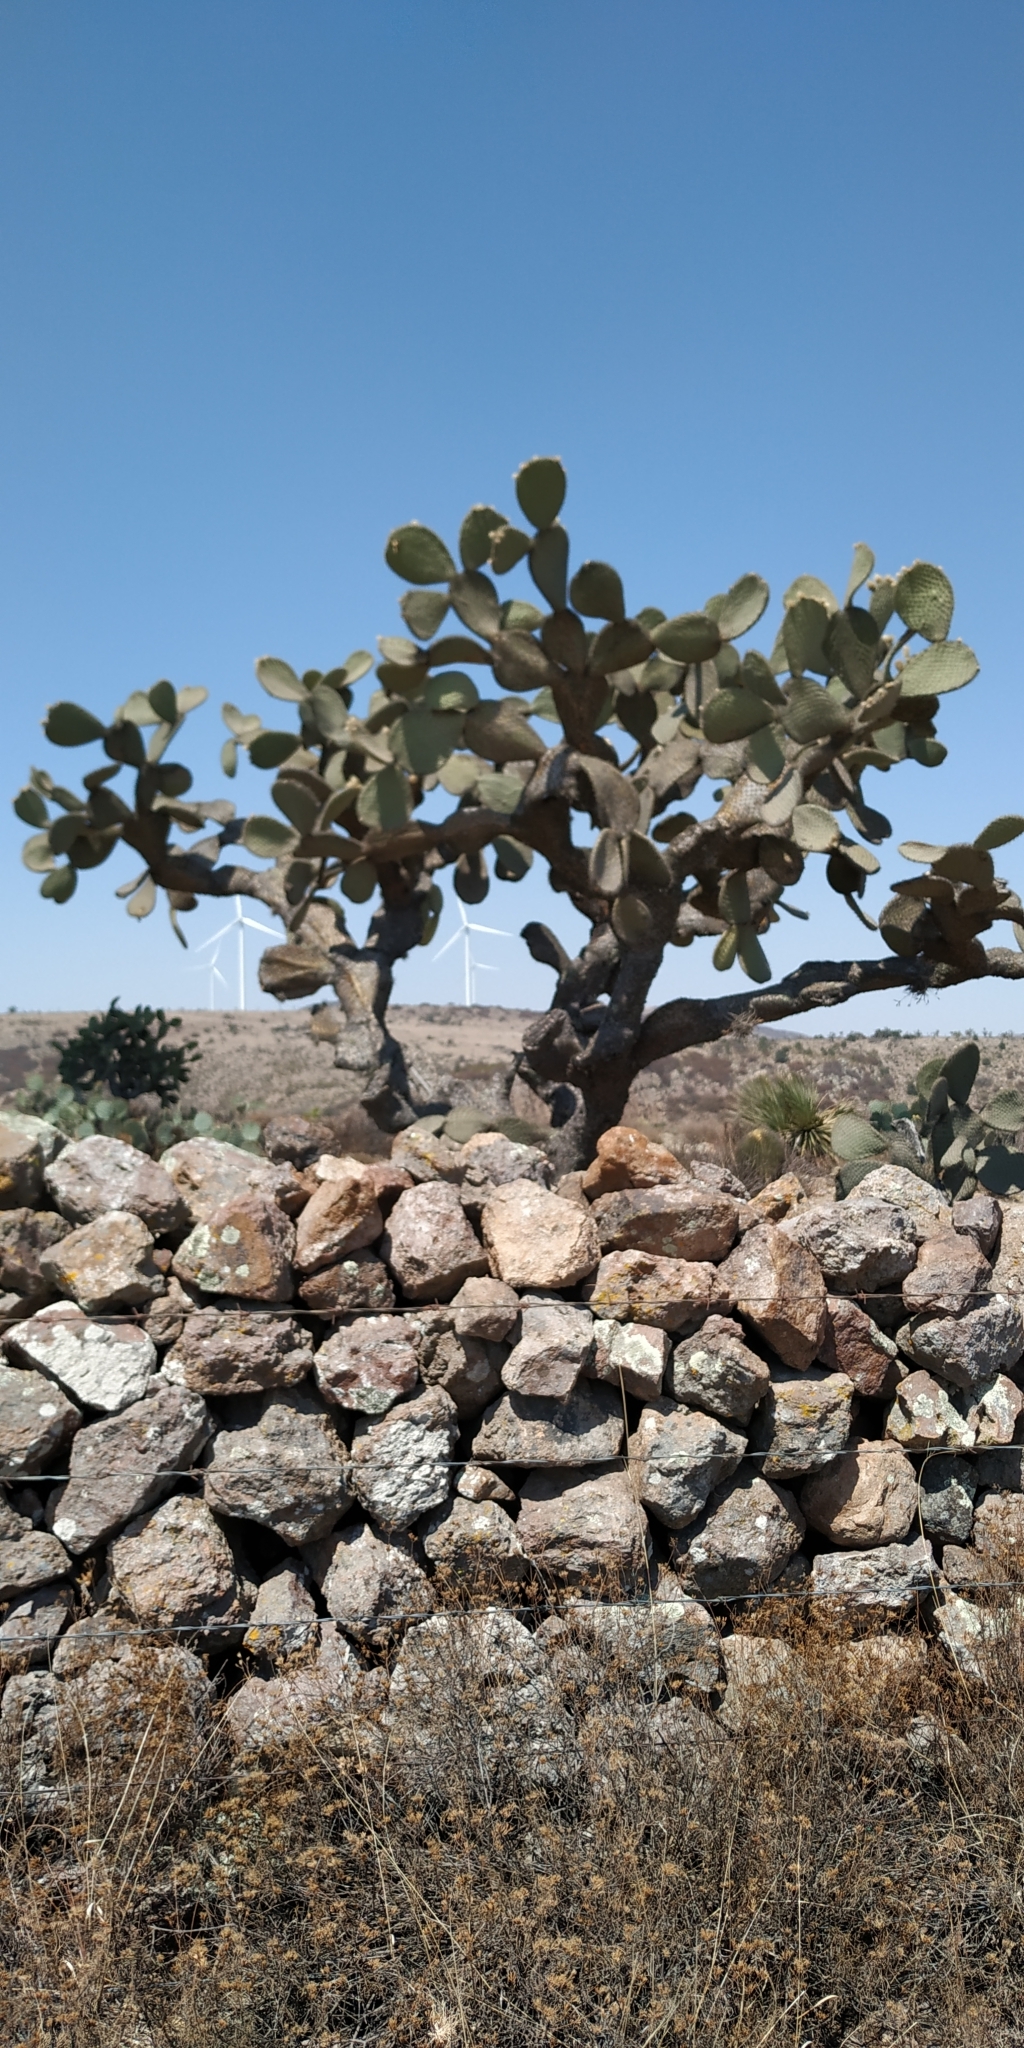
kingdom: Plantae
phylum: Tracheophyta
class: Magnoliopsida
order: Caryophyllales
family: Cactaceae
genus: Opuntia
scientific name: Opuntia leucotricha
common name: Arborescent pricklypear
